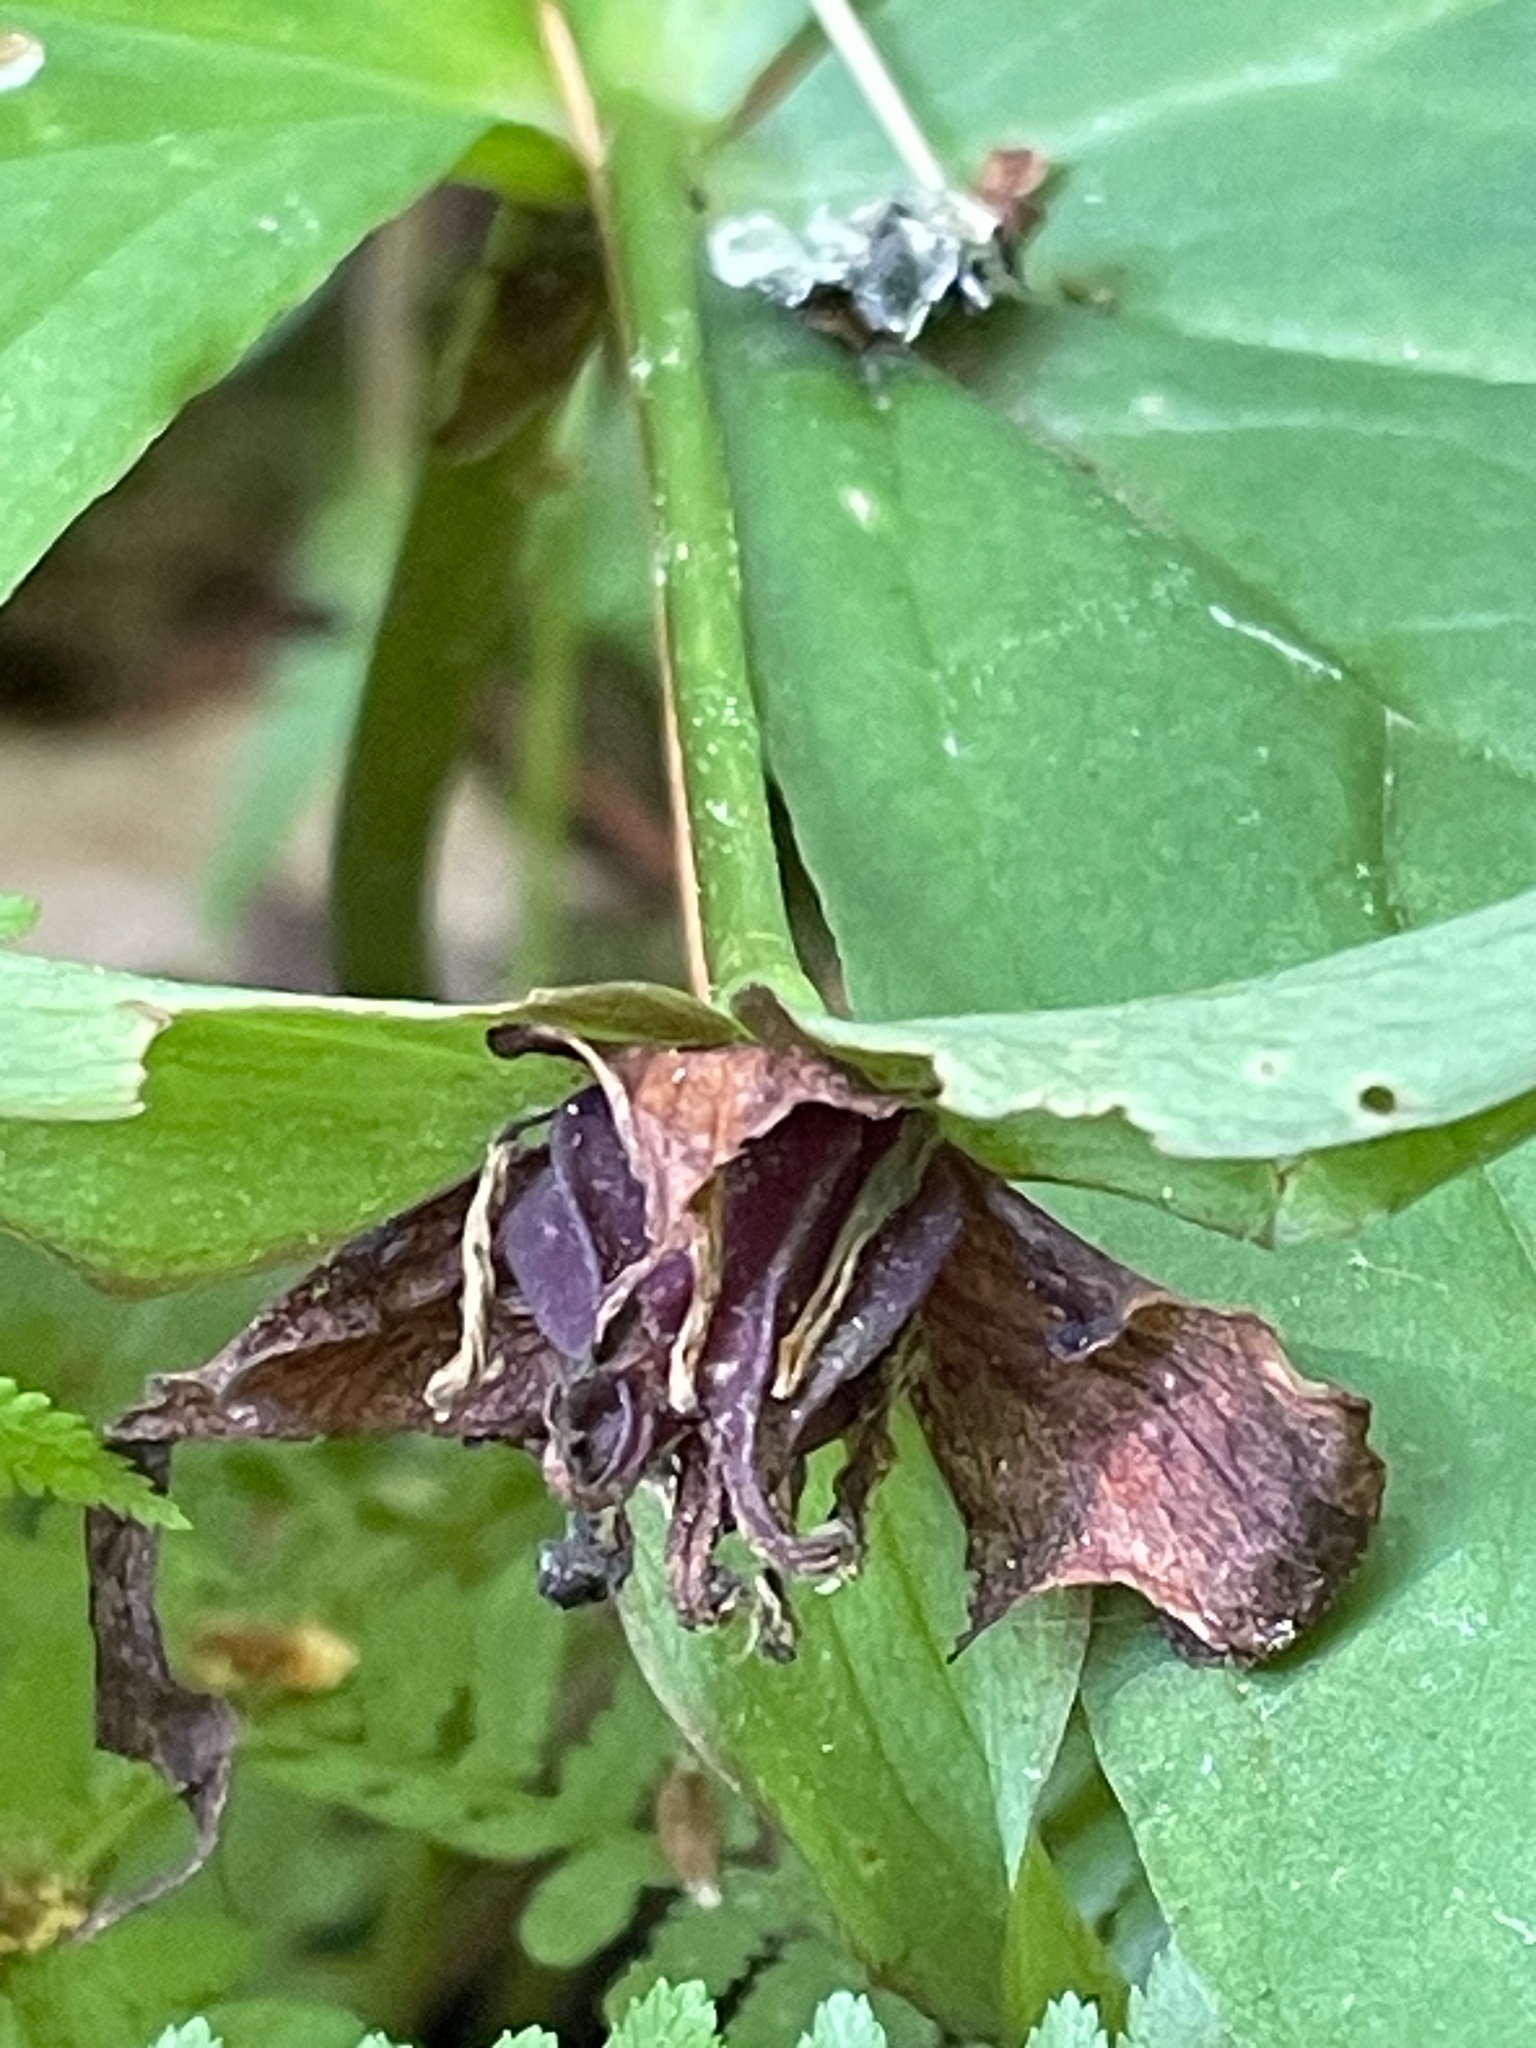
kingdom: Plantae
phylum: Tracheophyta
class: Liliopsida
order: Liliales
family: Melanthiaceae
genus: Trillium
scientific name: Trillium erectum
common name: Purple trillium
